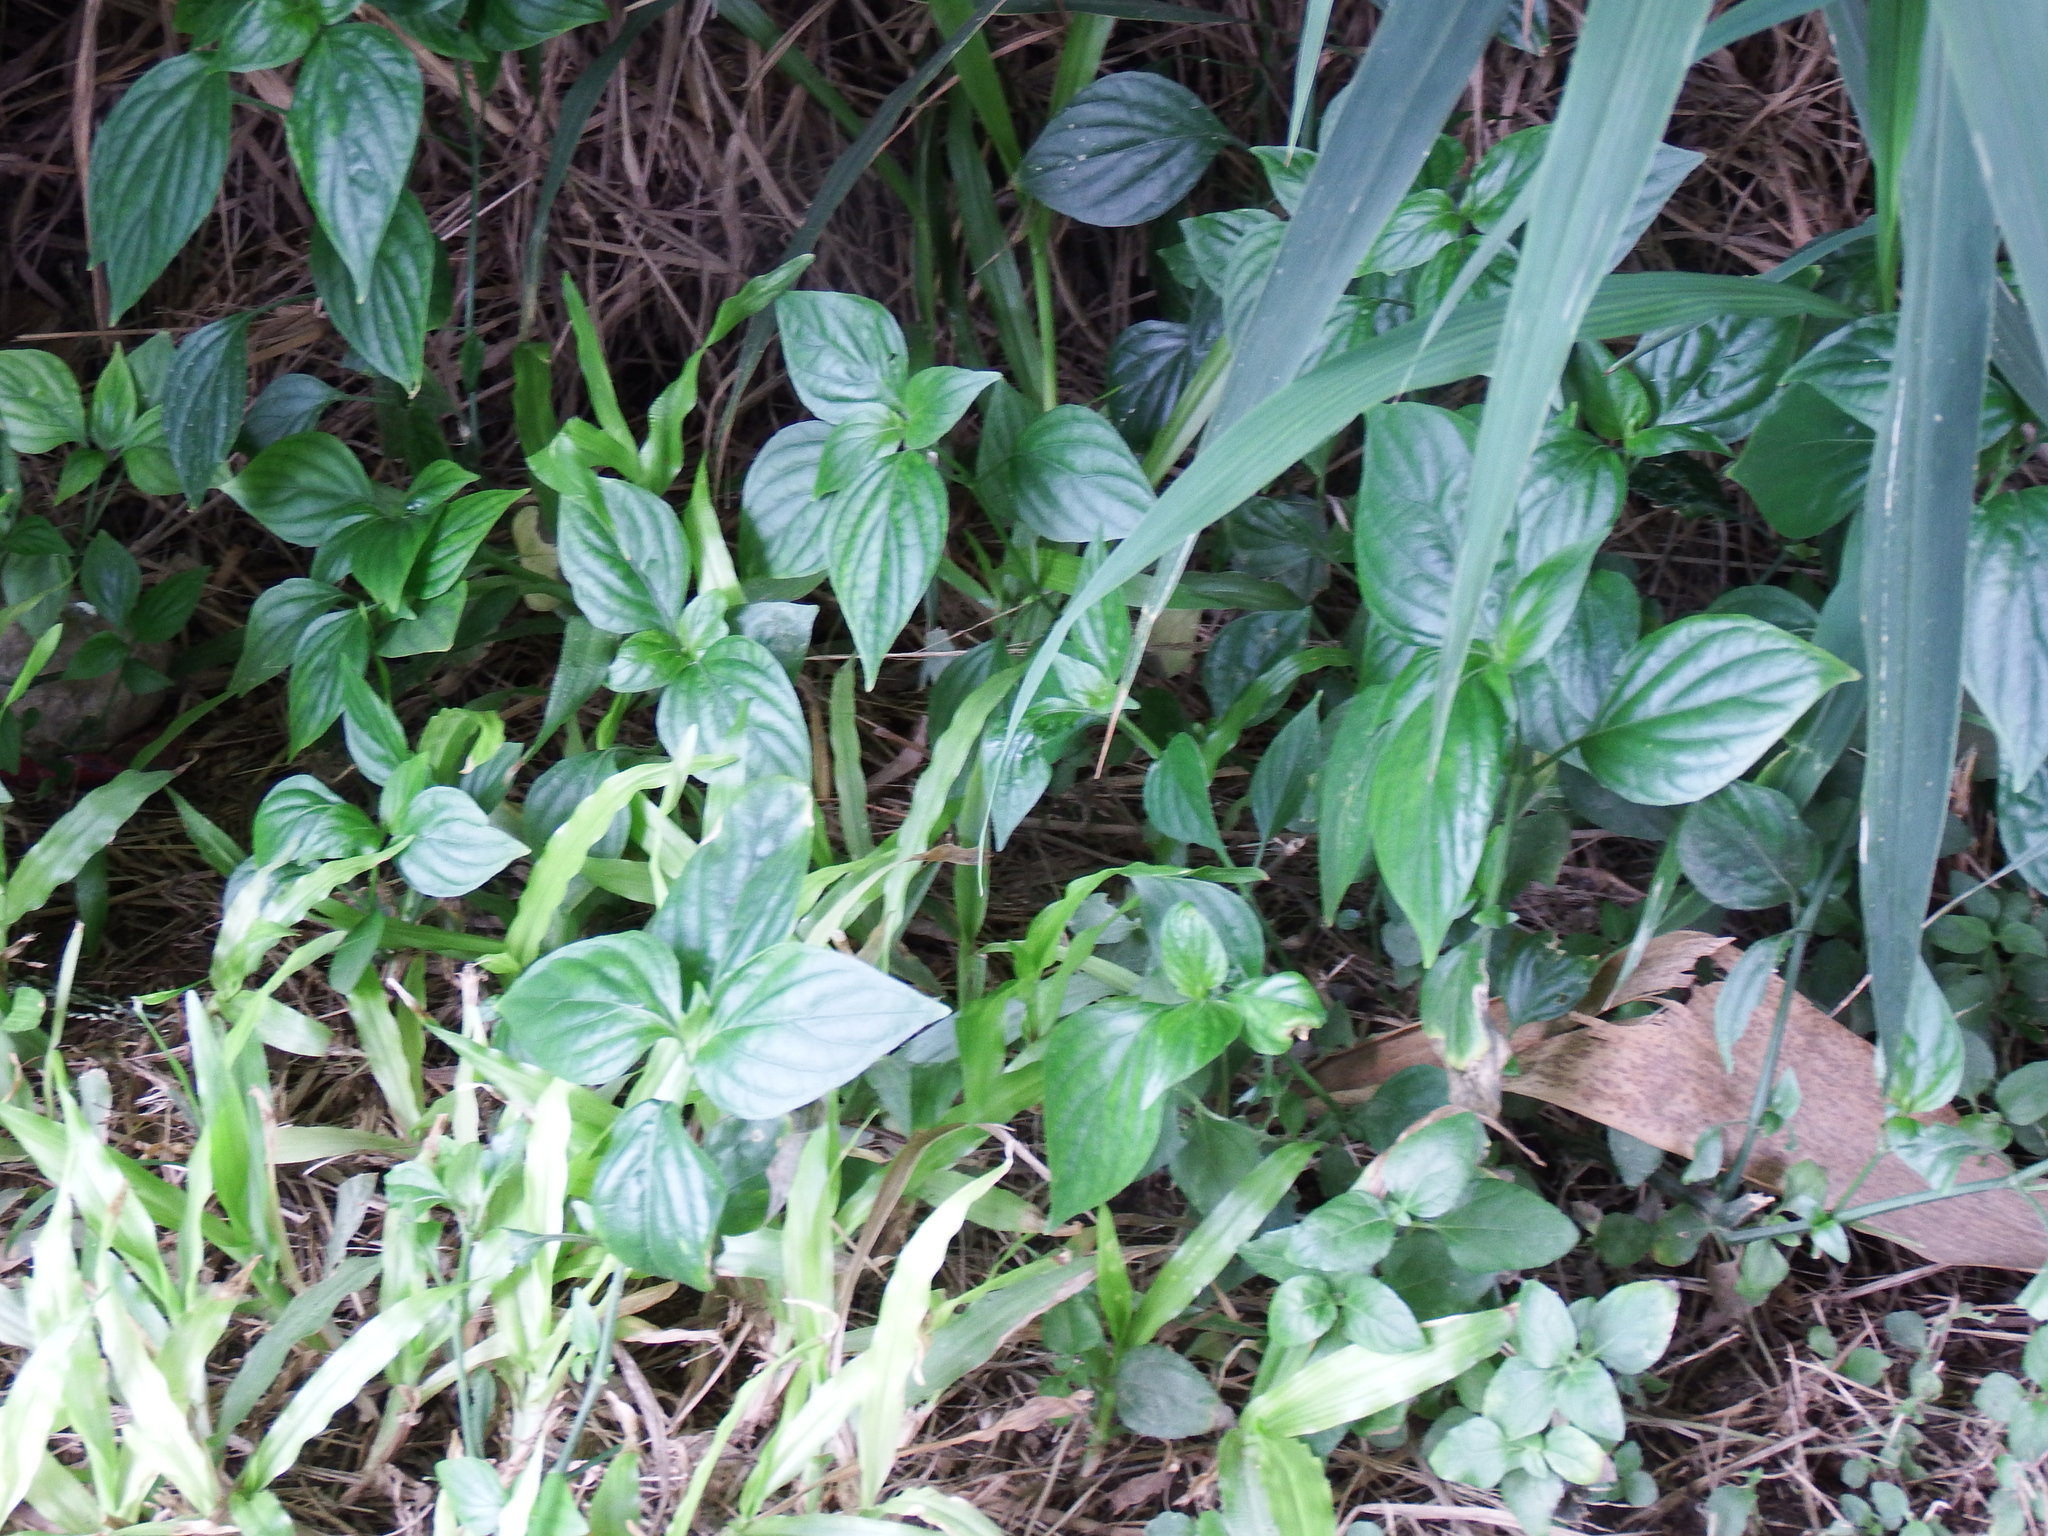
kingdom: Plantae
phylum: Tracheophyta
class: Magnoliopsida
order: Lamiales
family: Acanthaceae
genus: Dicliptera
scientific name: Dicliptera chinensis
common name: Chinese foldwing
